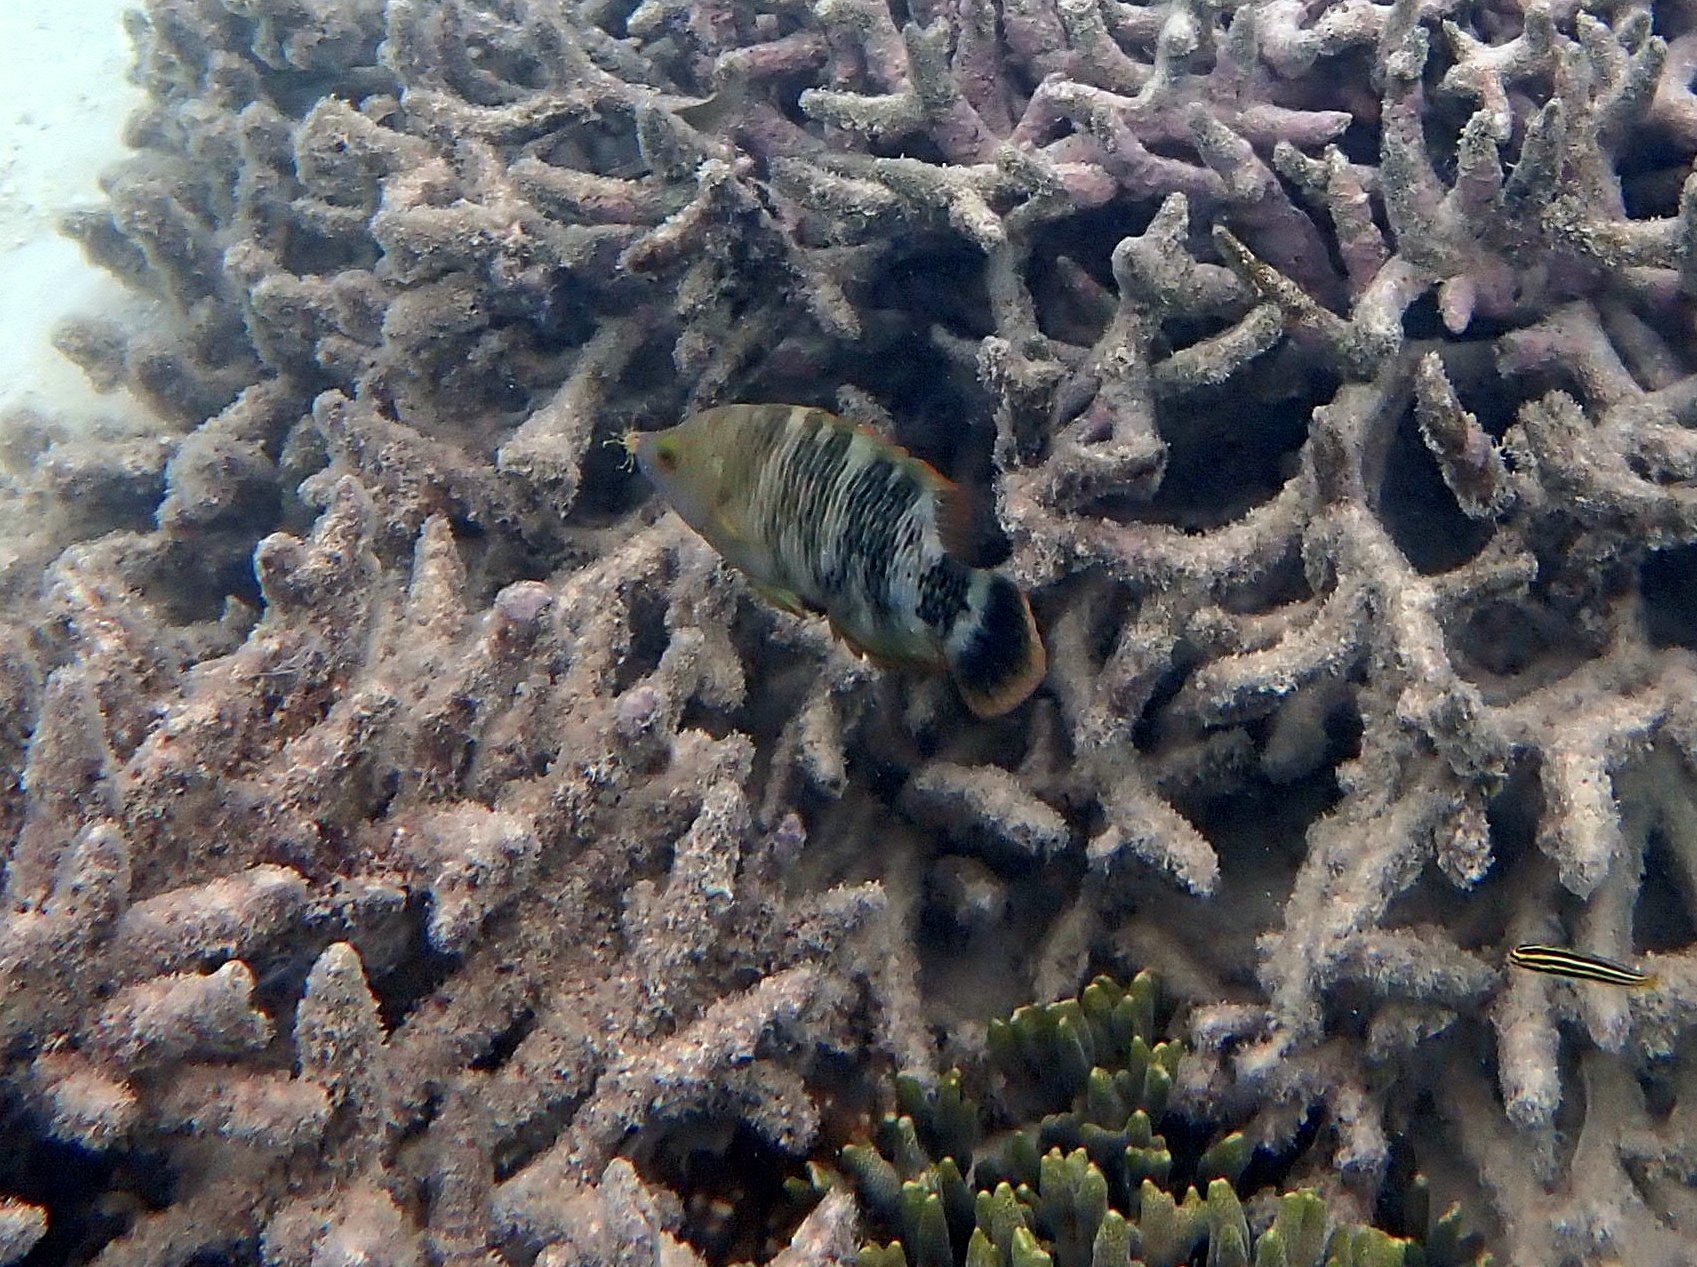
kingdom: Animalia
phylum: Chordata
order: Perciformes
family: Labridae
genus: Cheilinus
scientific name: Cheilinus trilobatus
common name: Tripletail maori wrasse
